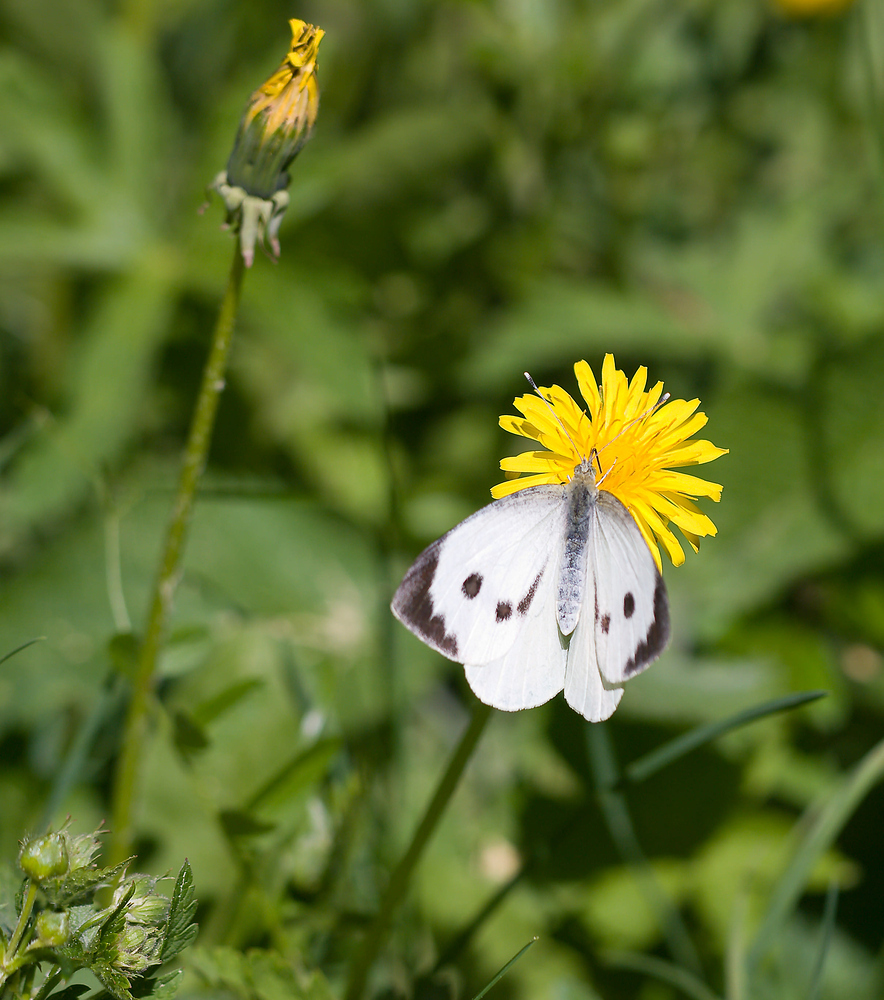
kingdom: Animalia
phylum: Arthropoda
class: Insecta
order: Lepidoptera
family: Pieridae
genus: Pieris
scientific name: Pieris brassicae
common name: Large white
